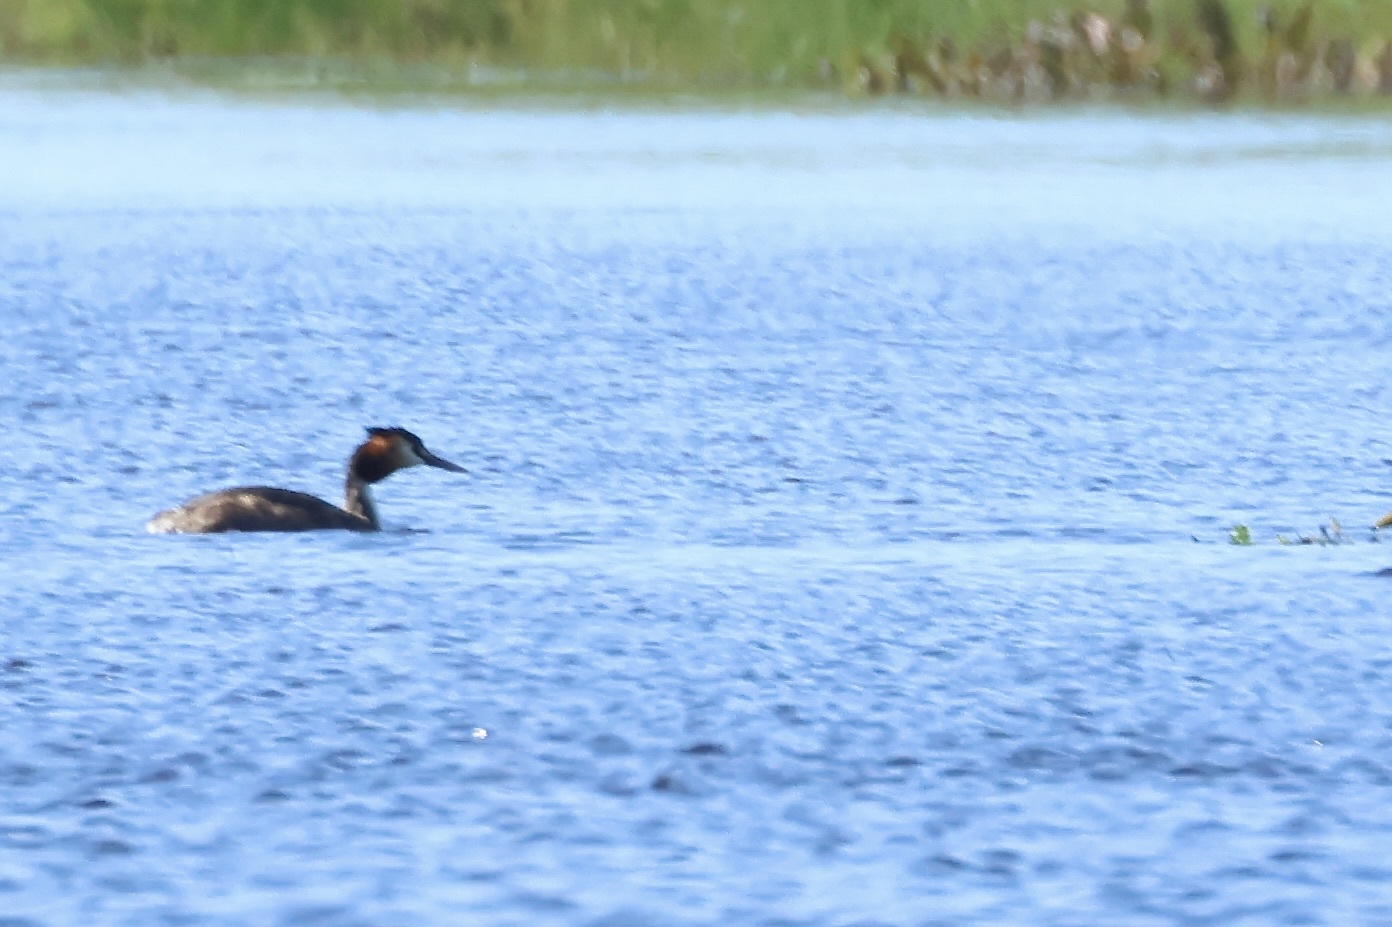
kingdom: Animalia
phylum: Chordata
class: Aves
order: Podicipediformes
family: Podicipedidae
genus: Podiceps
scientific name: Podiceps cristatus
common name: Great crested grebe
